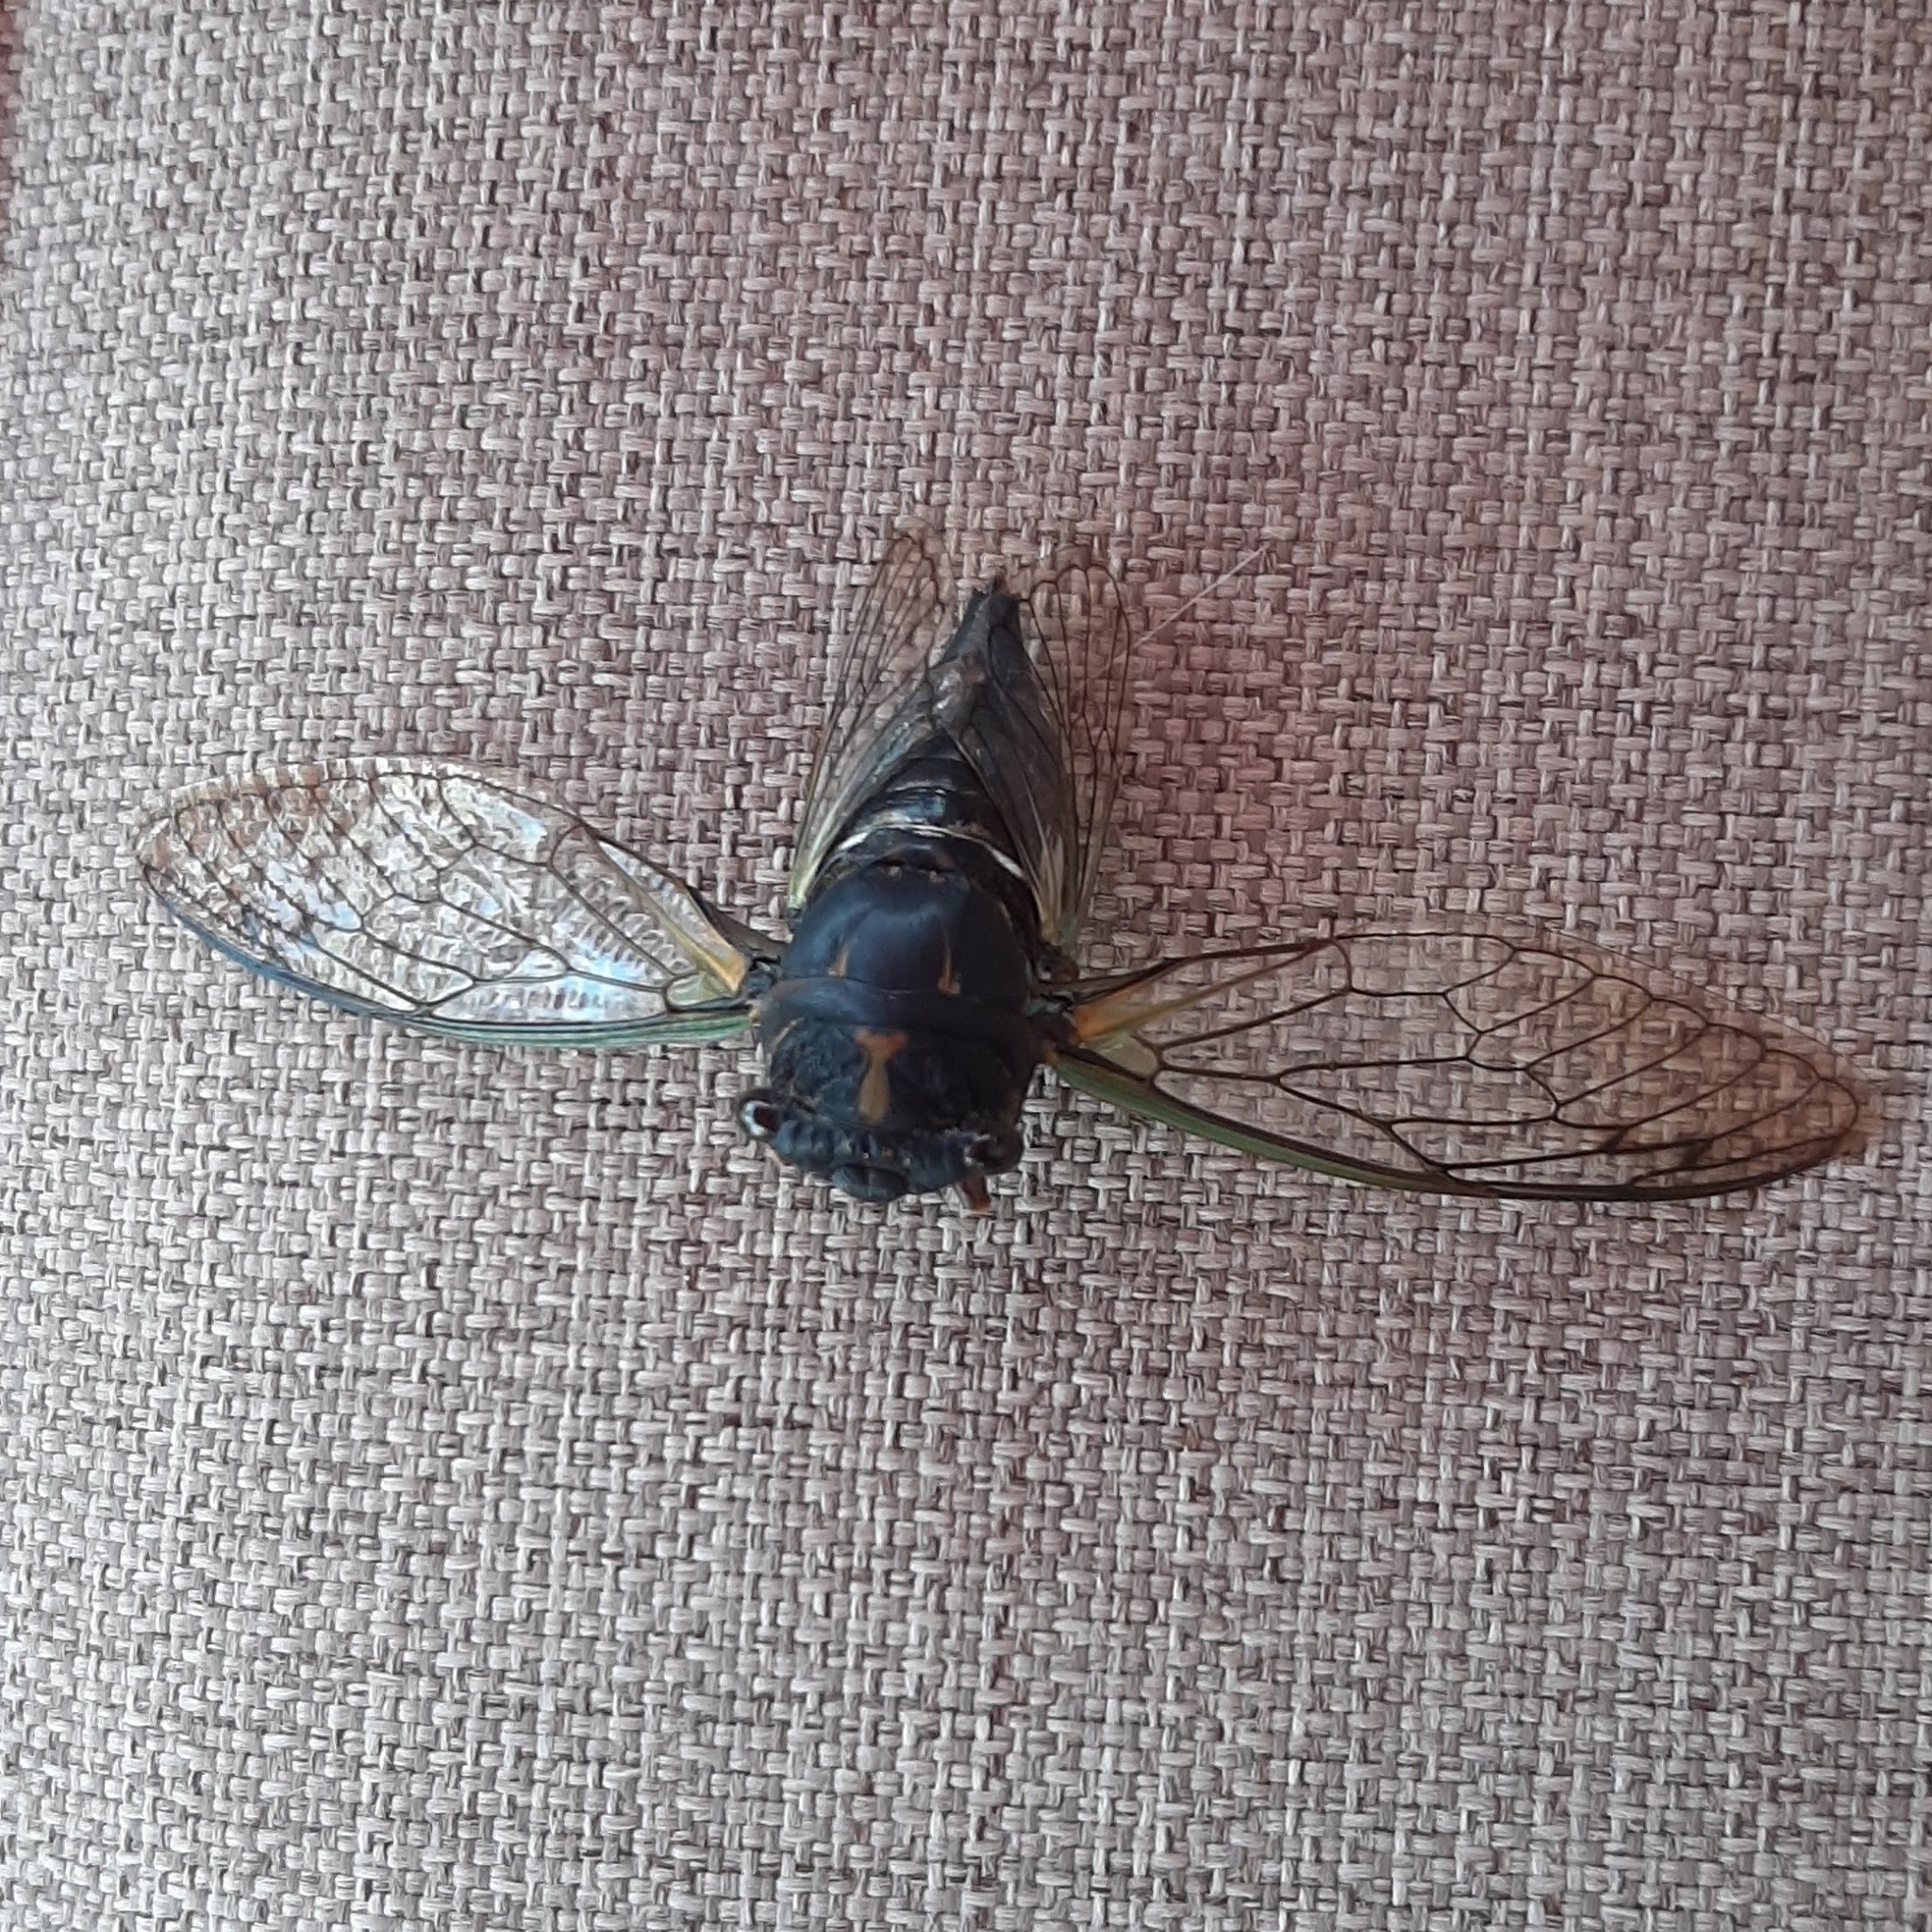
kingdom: Animalia
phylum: Arthropoda
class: Insecta
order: Hemiptera
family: Cicadidae
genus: Neotibicen
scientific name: Neotibicen lyricen
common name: Lyric cicada
